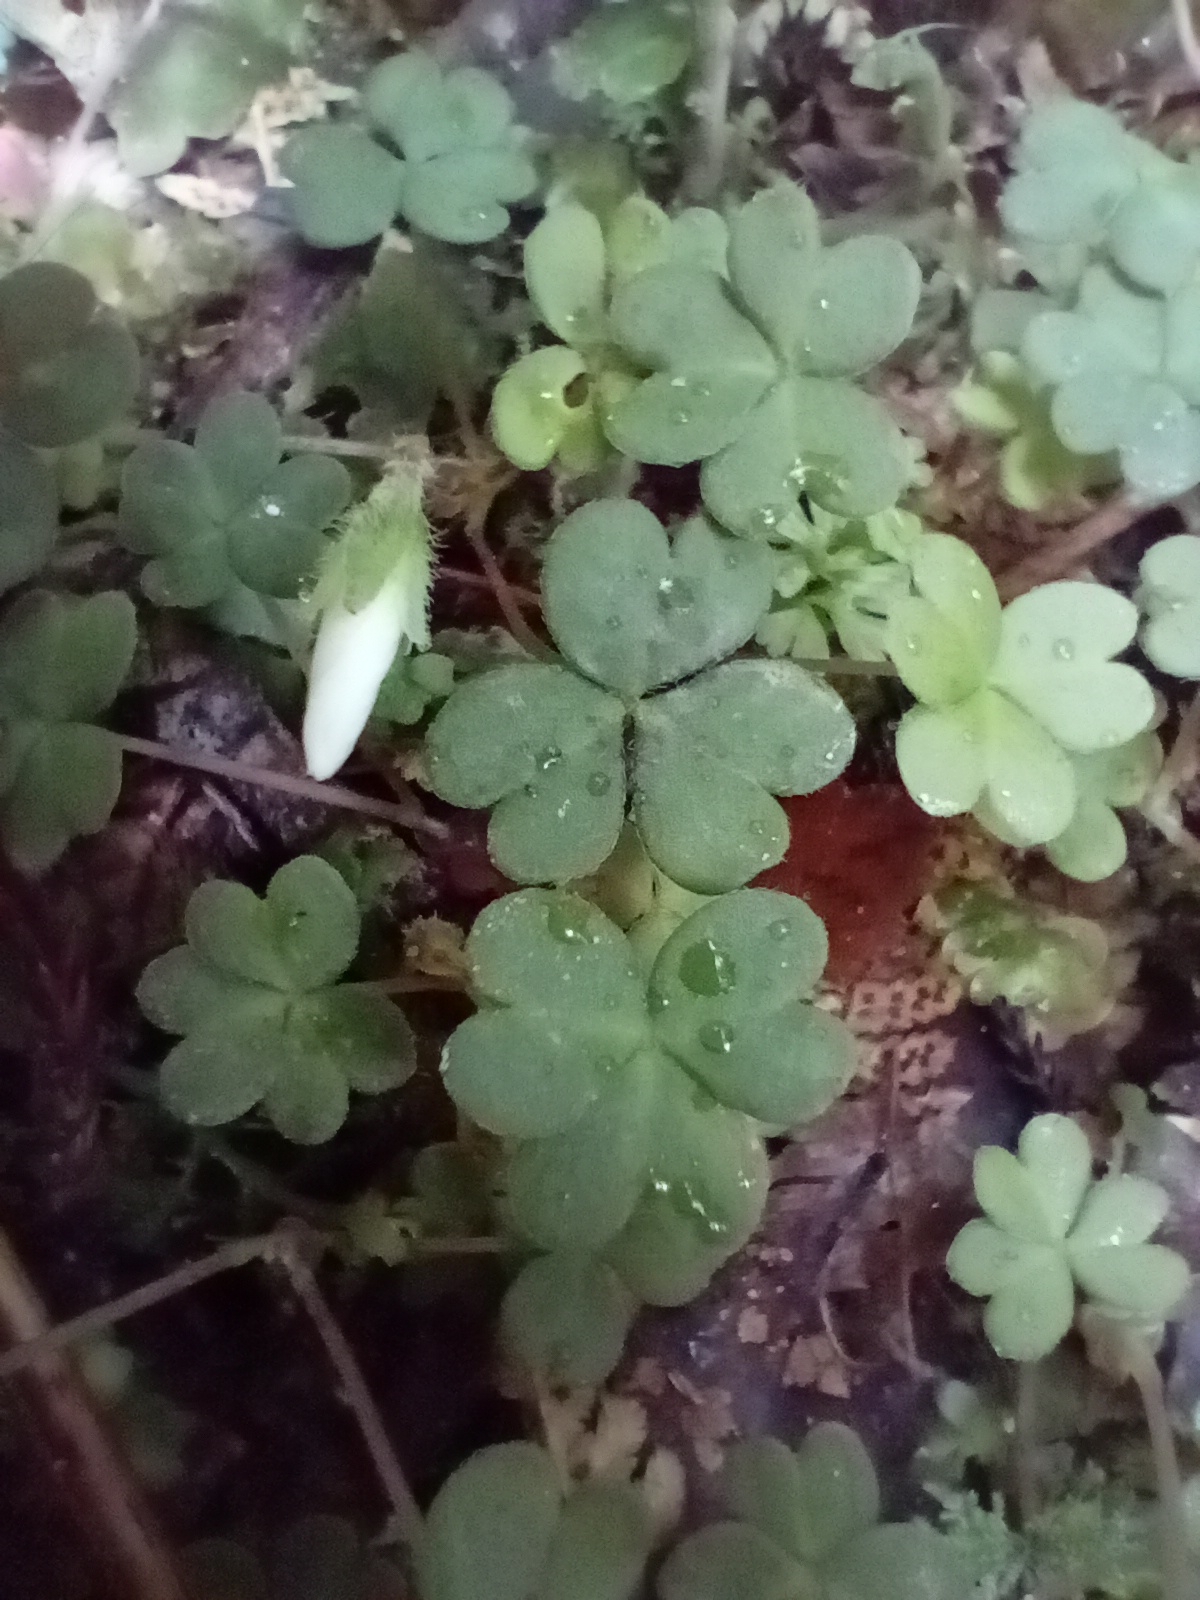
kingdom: Plantae
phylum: Tracheophyta
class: Magnoliopsida
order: Oxalidales
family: Oxalidaceae
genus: Oxalis
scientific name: Oxalis magellanica
